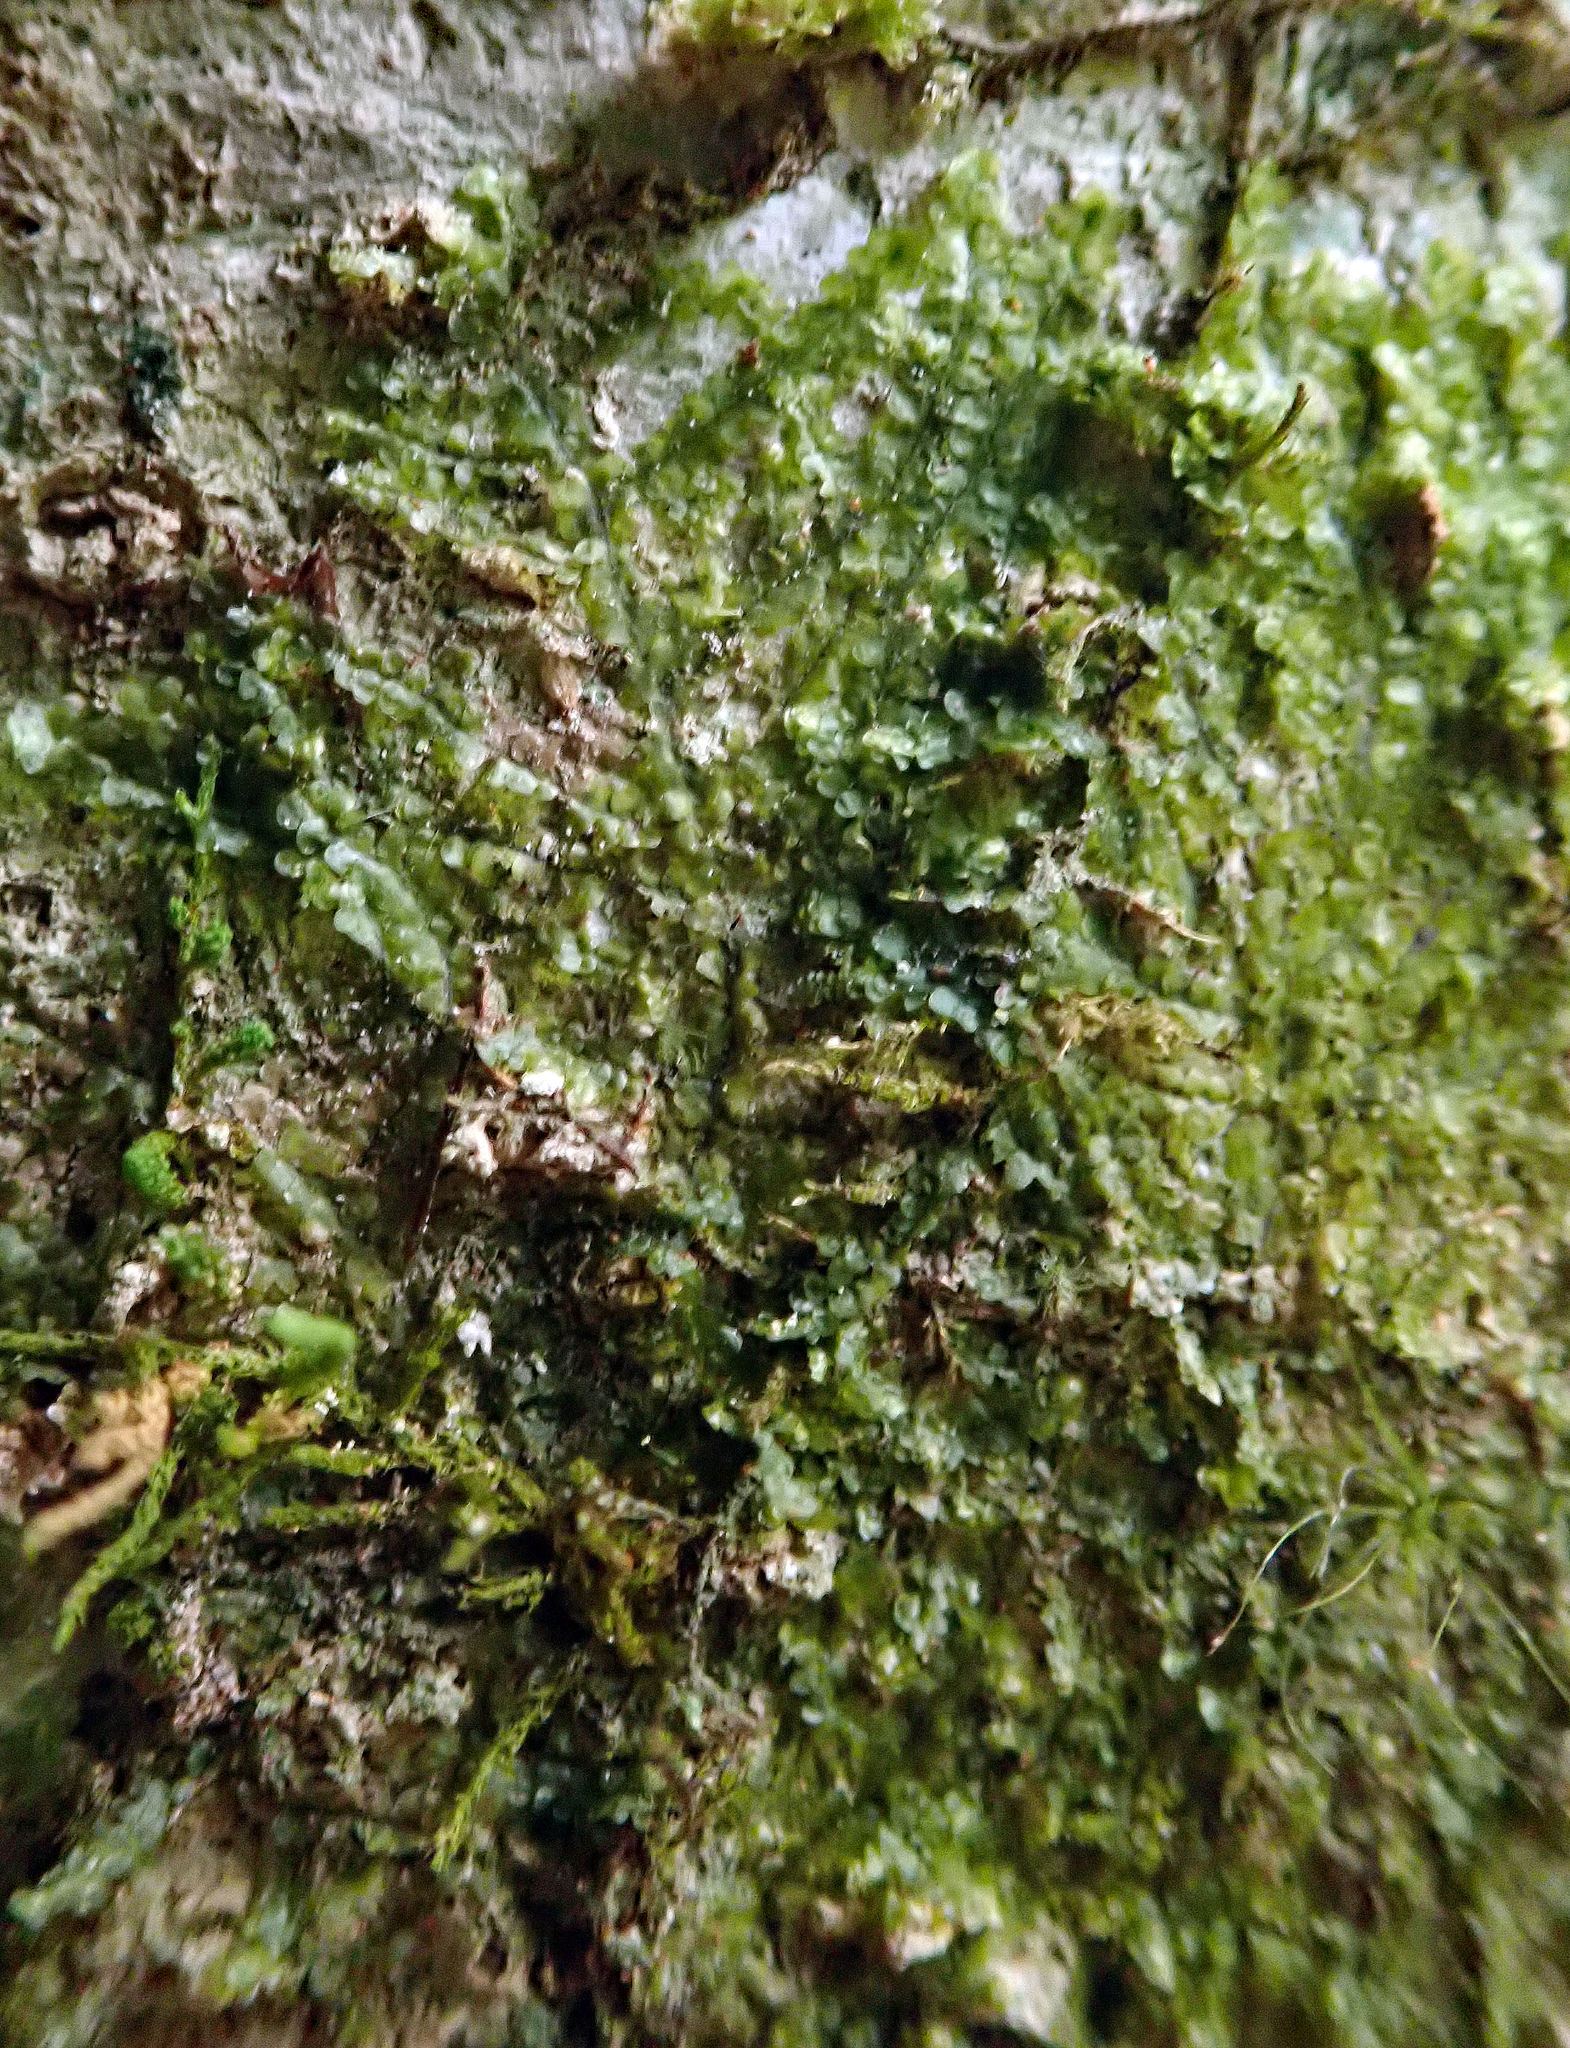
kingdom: Plantae
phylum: Marchantiophyta
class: Jungermanniopsida
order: Porellales
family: Radulaceae
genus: Radula
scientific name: Radula allisonii
